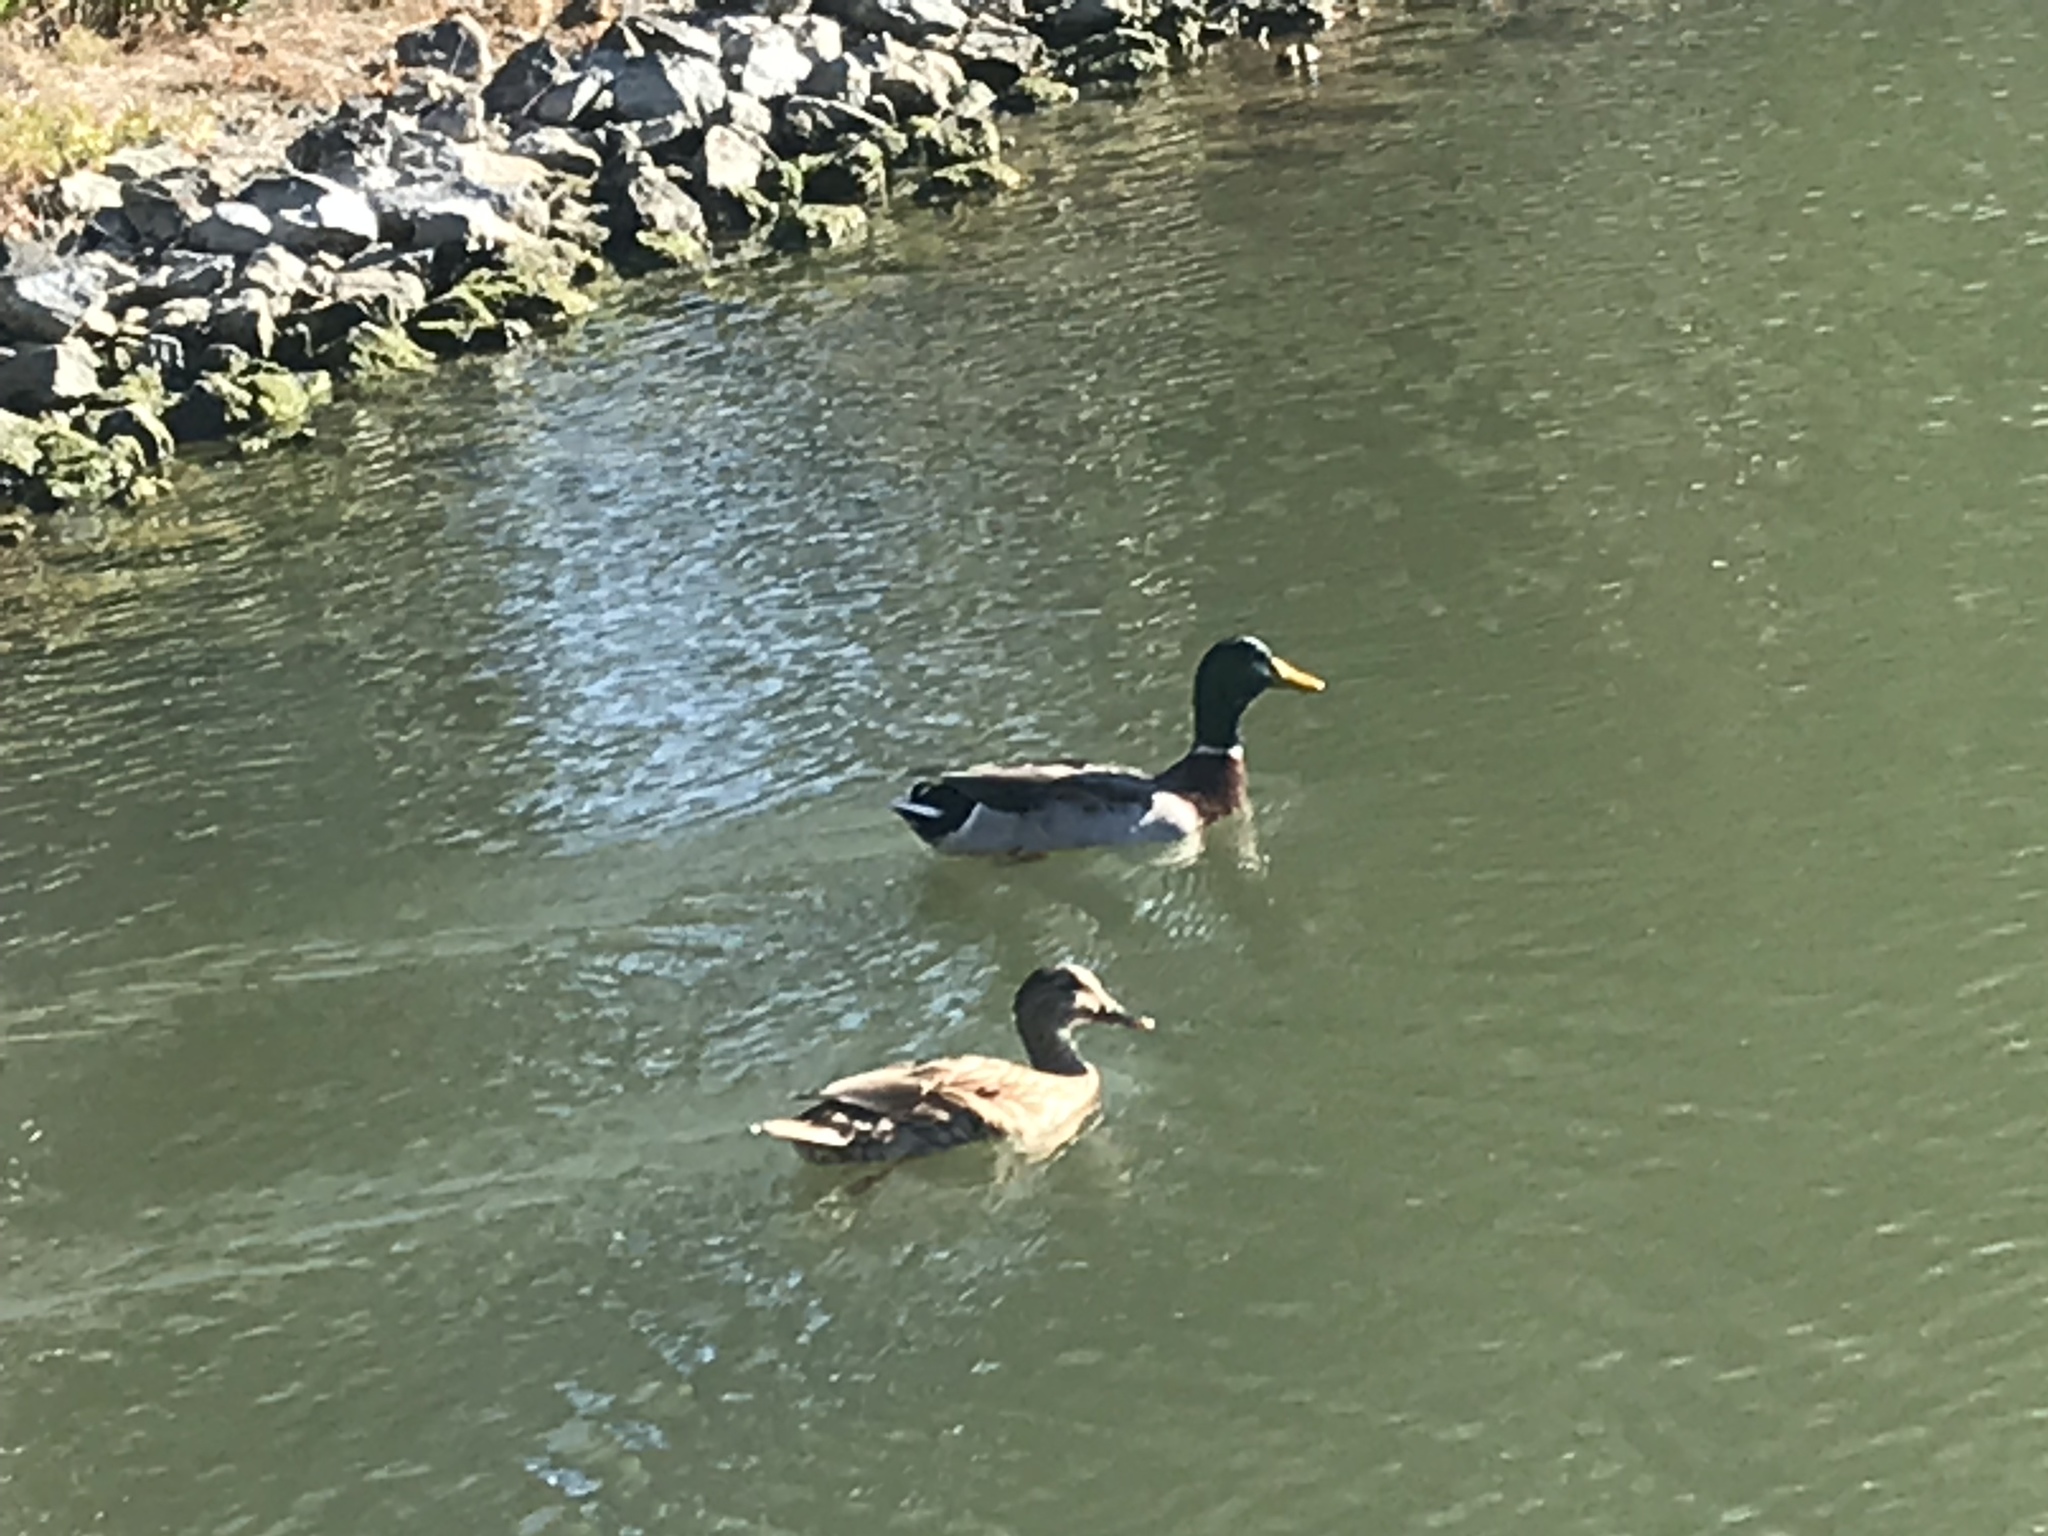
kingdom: Animalia
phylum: Chordata
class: Aves
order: Anseriformes
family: Anatidae
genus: Anas
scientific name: Anas platyrhynchos
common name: Mallard
